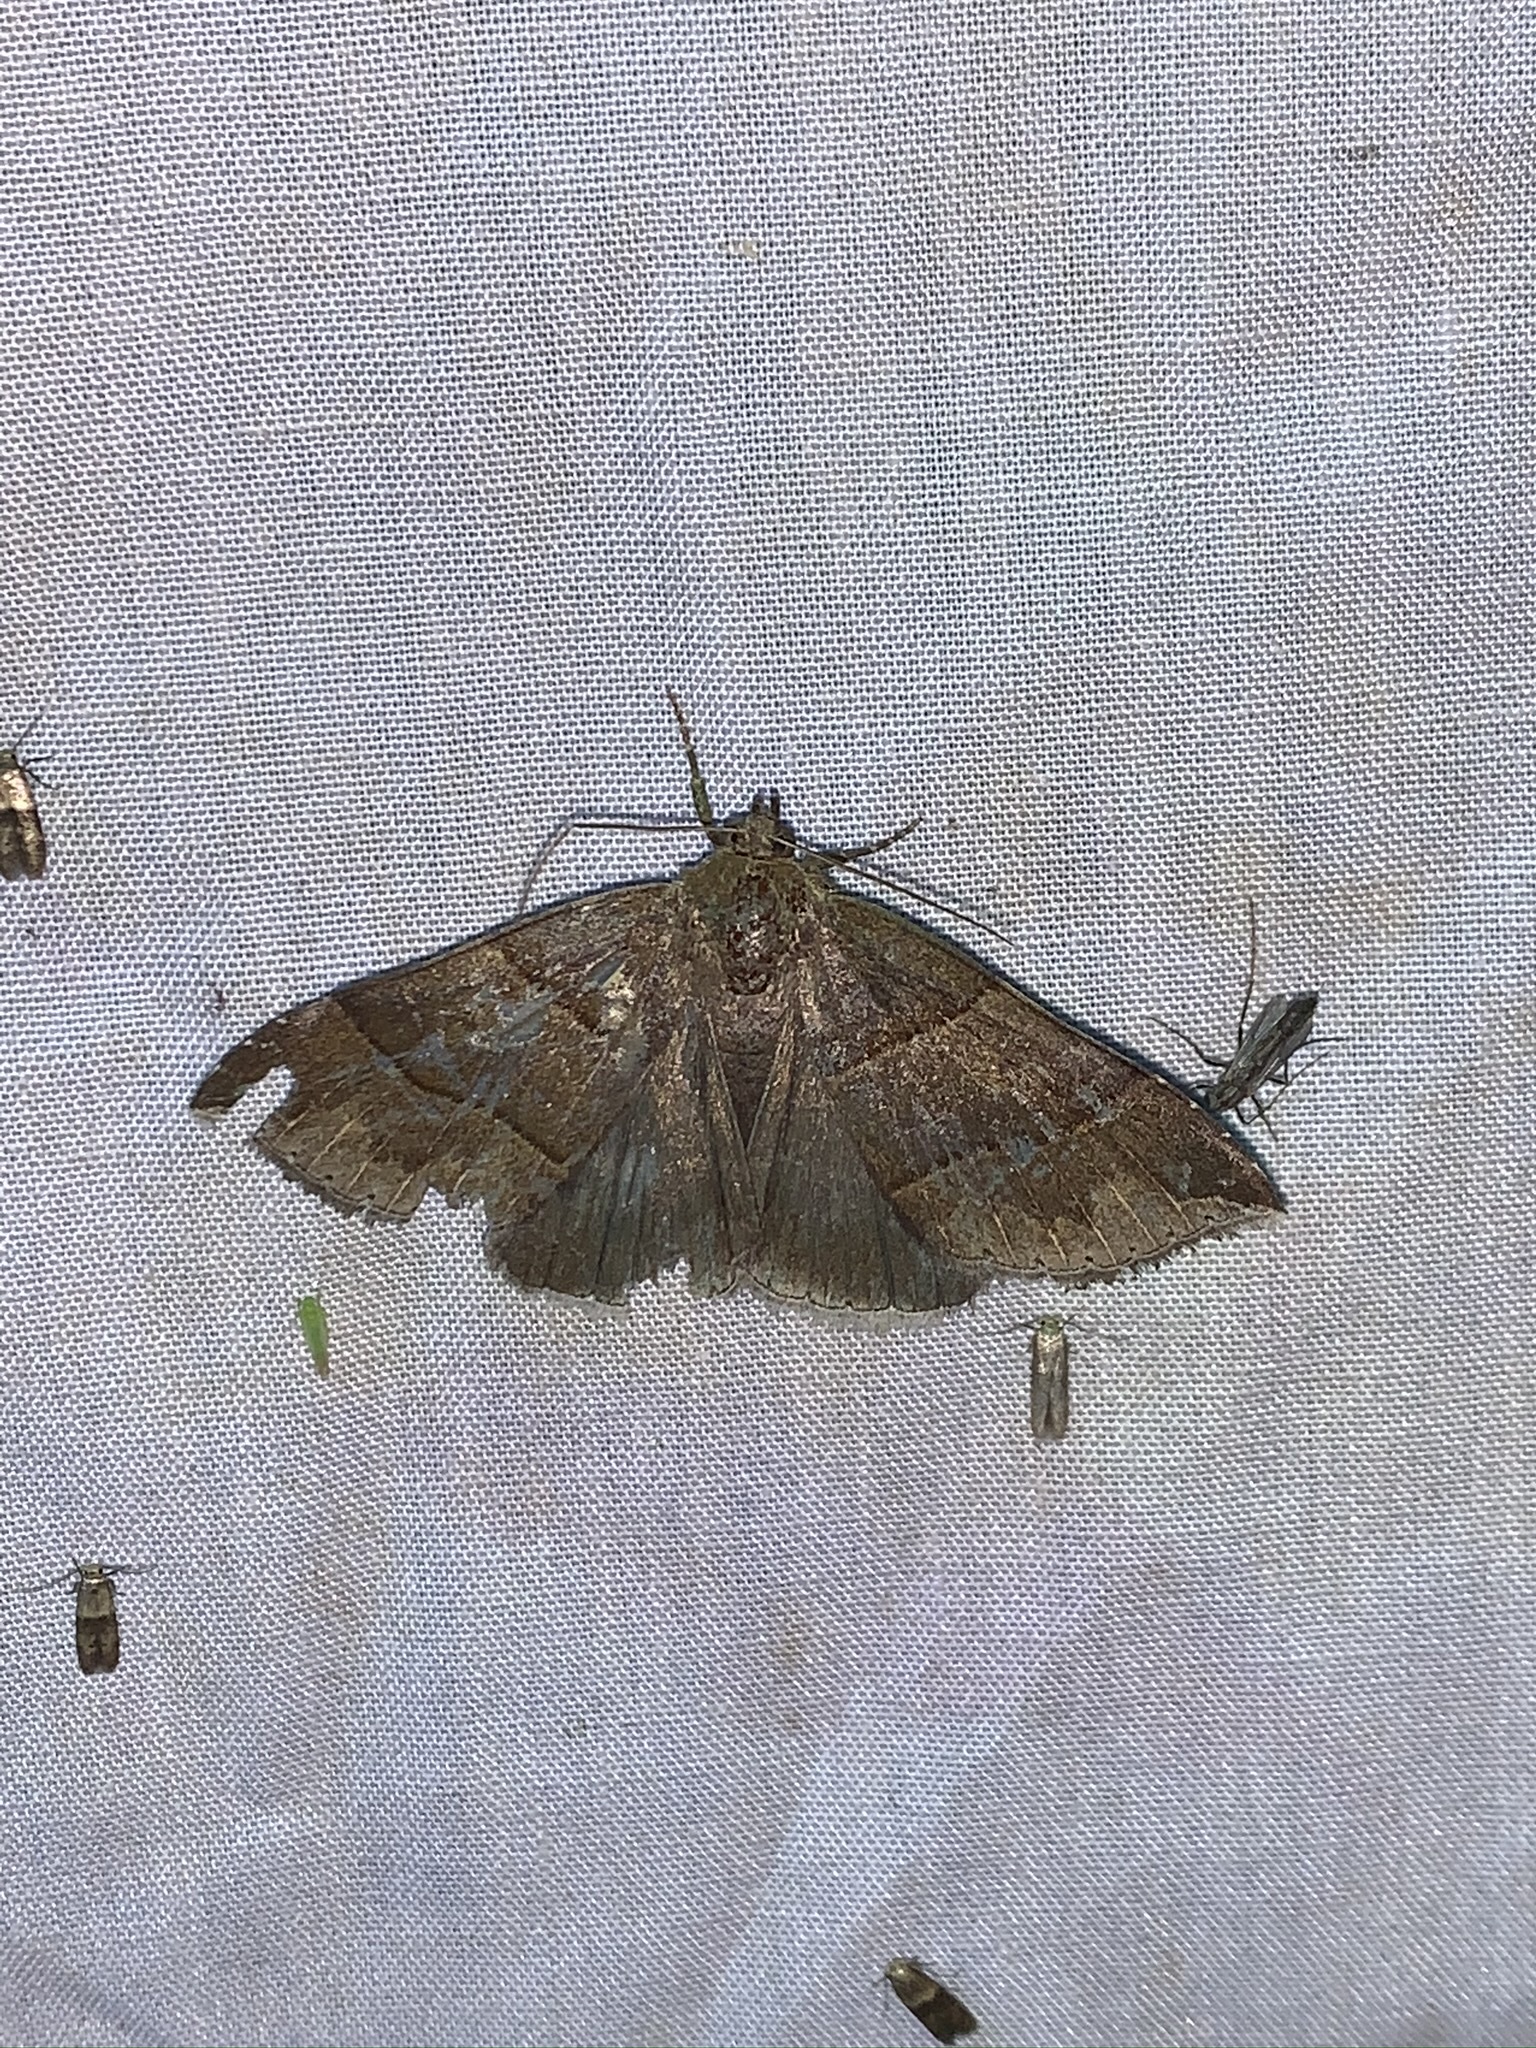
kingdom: Animalia
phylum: Arthropoda
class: Insecta
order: Lepidoptera
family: Erebidae
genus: Parallelia
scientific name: Parallelia bistriaris
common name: Maple looper moth
